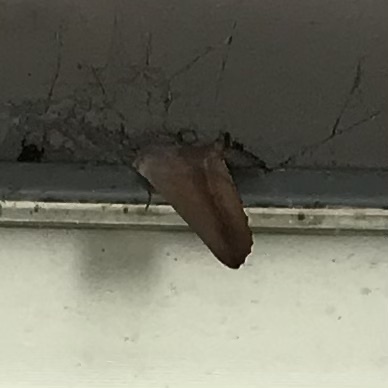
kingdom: Animalia
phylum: Arthropoda
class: Insecta
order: Lepidoptera
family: Geometridae
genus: Monoctenia
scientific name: Monoctenia smerintharia
